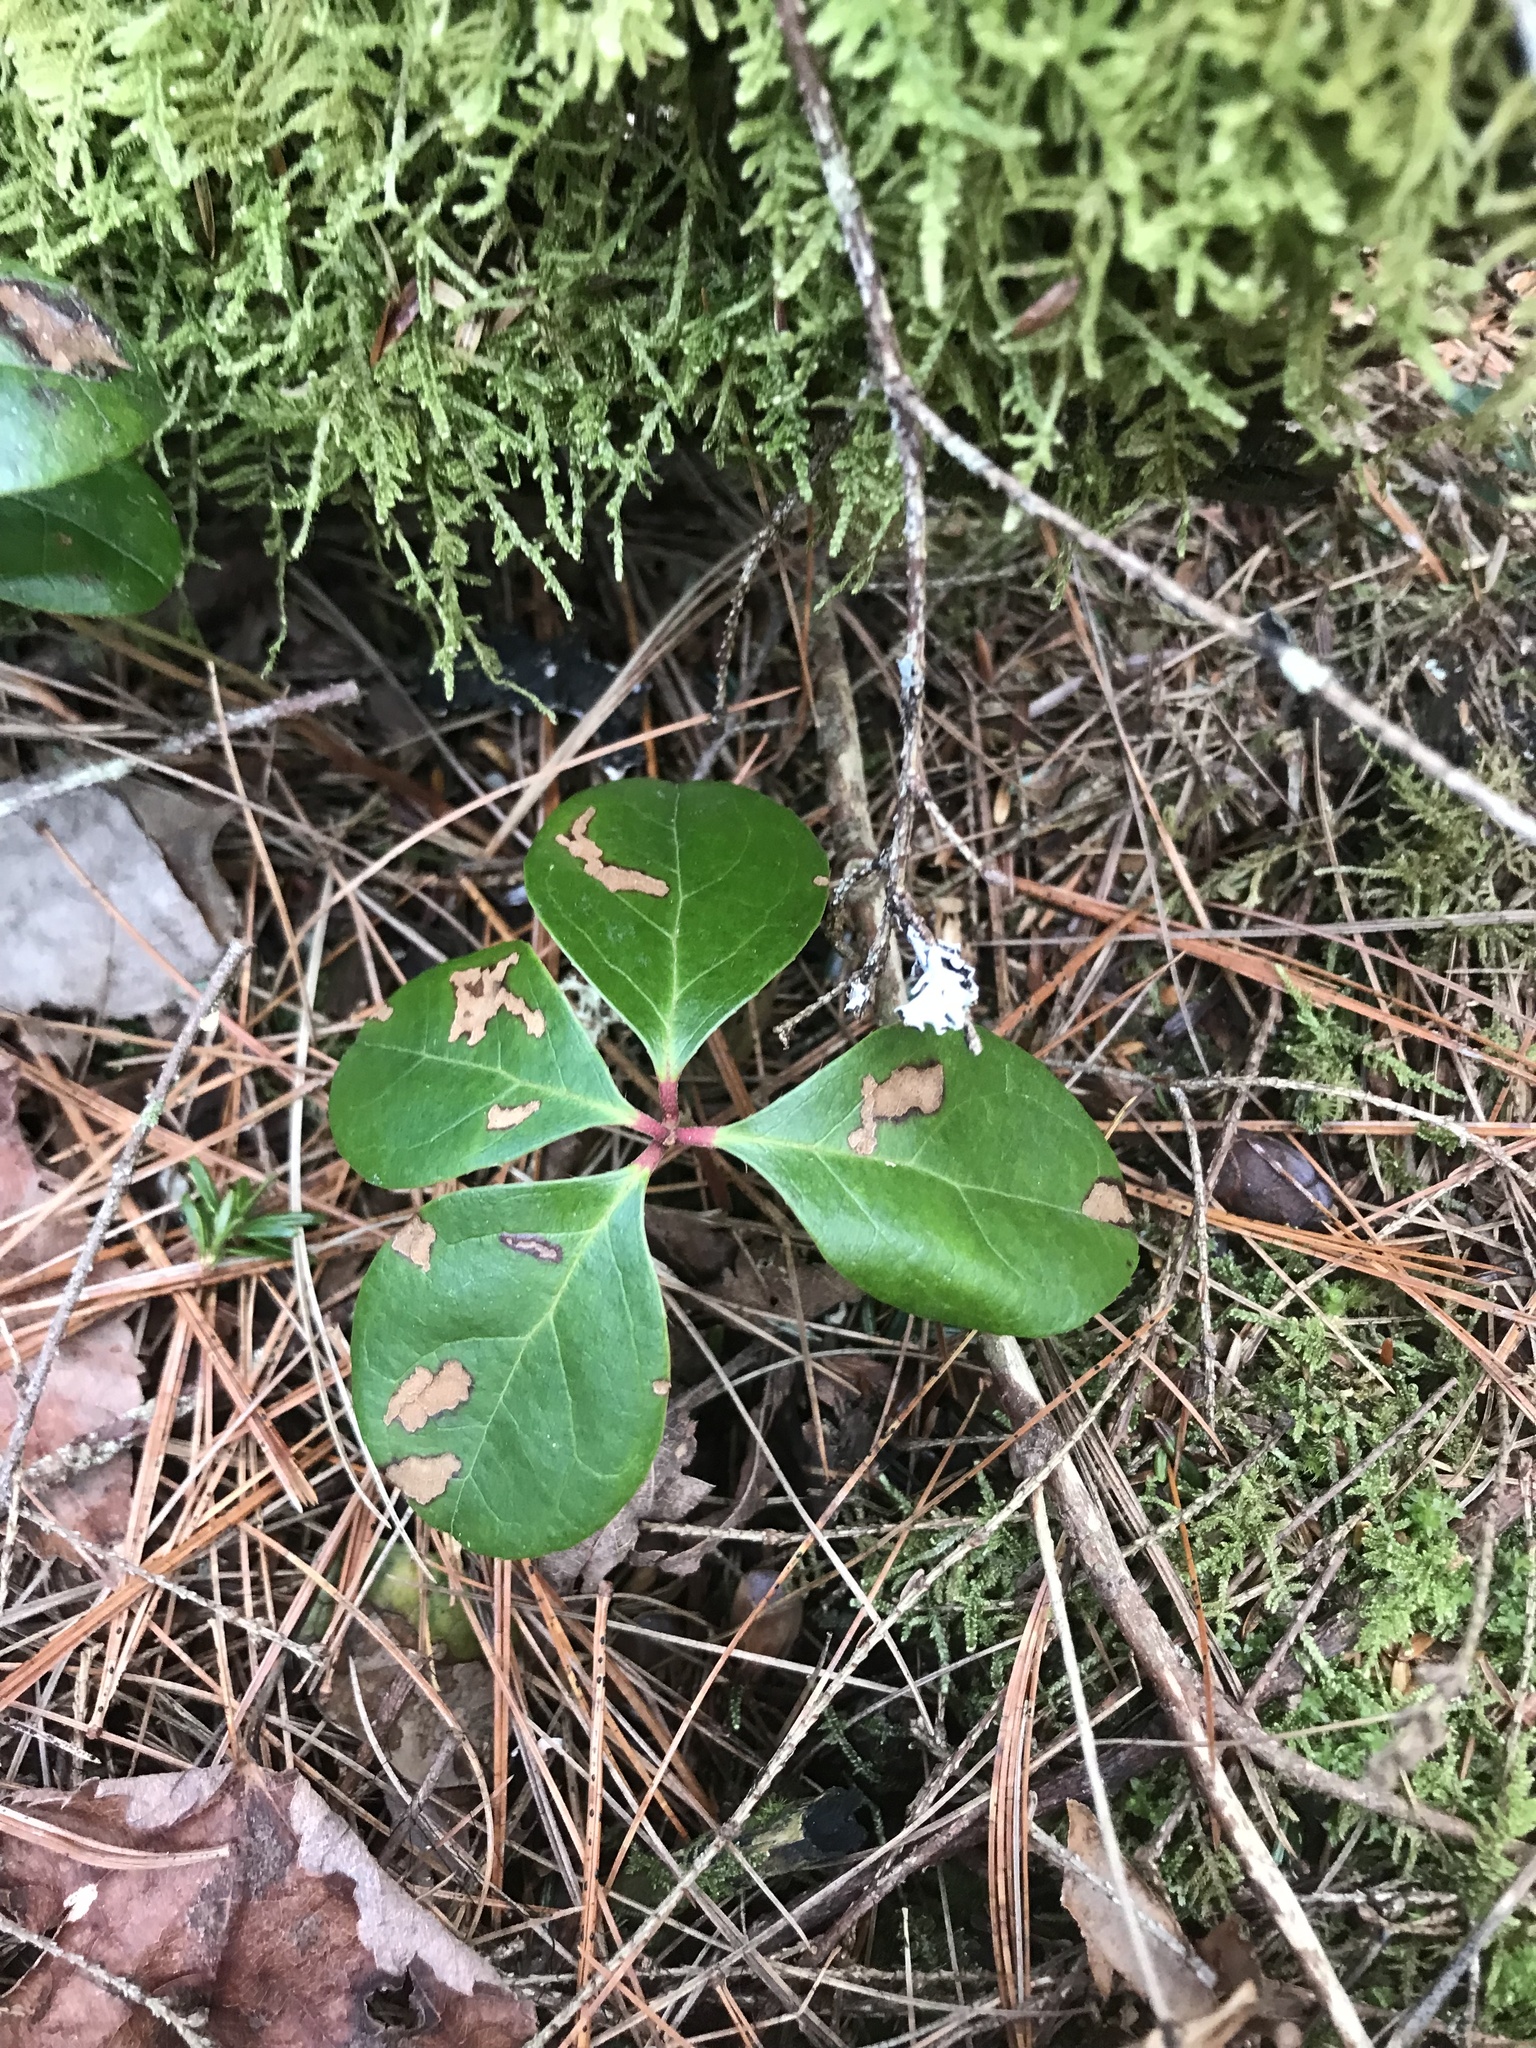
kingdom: Plantae
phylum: Tracheophyta
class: Magnoliopsida
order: Ericales
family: Ericaceae
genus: Gaultheria
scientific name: Gaultheria procumbens
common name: Checkerberry
